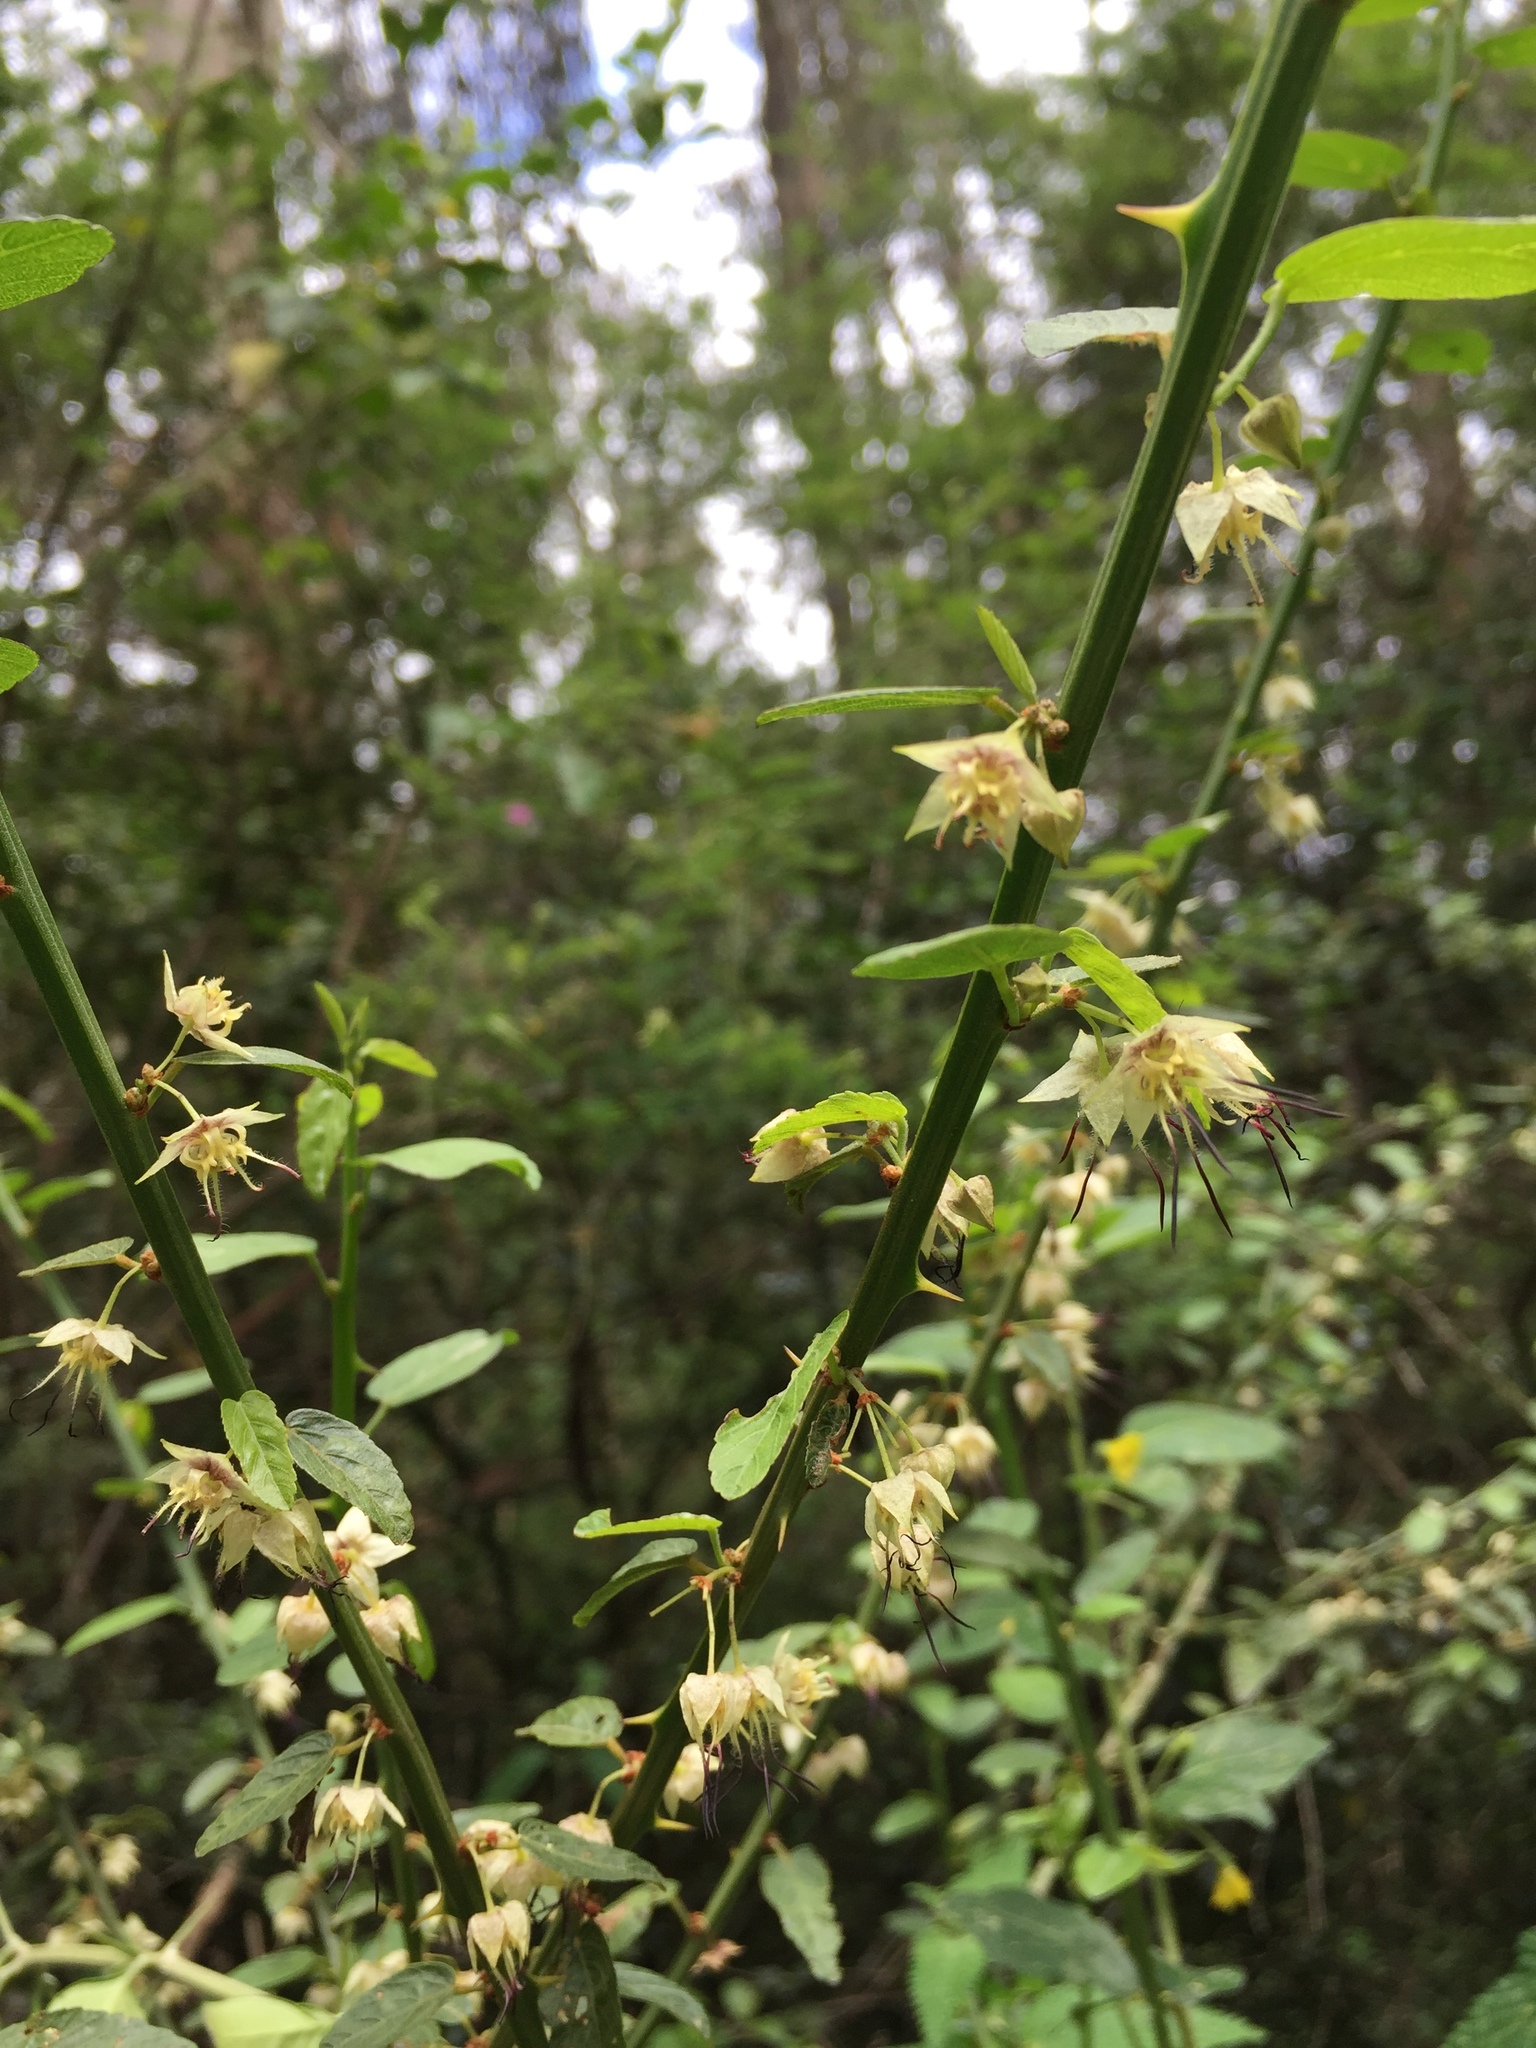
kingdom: Plantae
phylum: Tracheophyta
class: Magnoliopsida
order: Malvales
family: Malvaceae
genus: Byttneria
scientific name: Byttneria ovata
